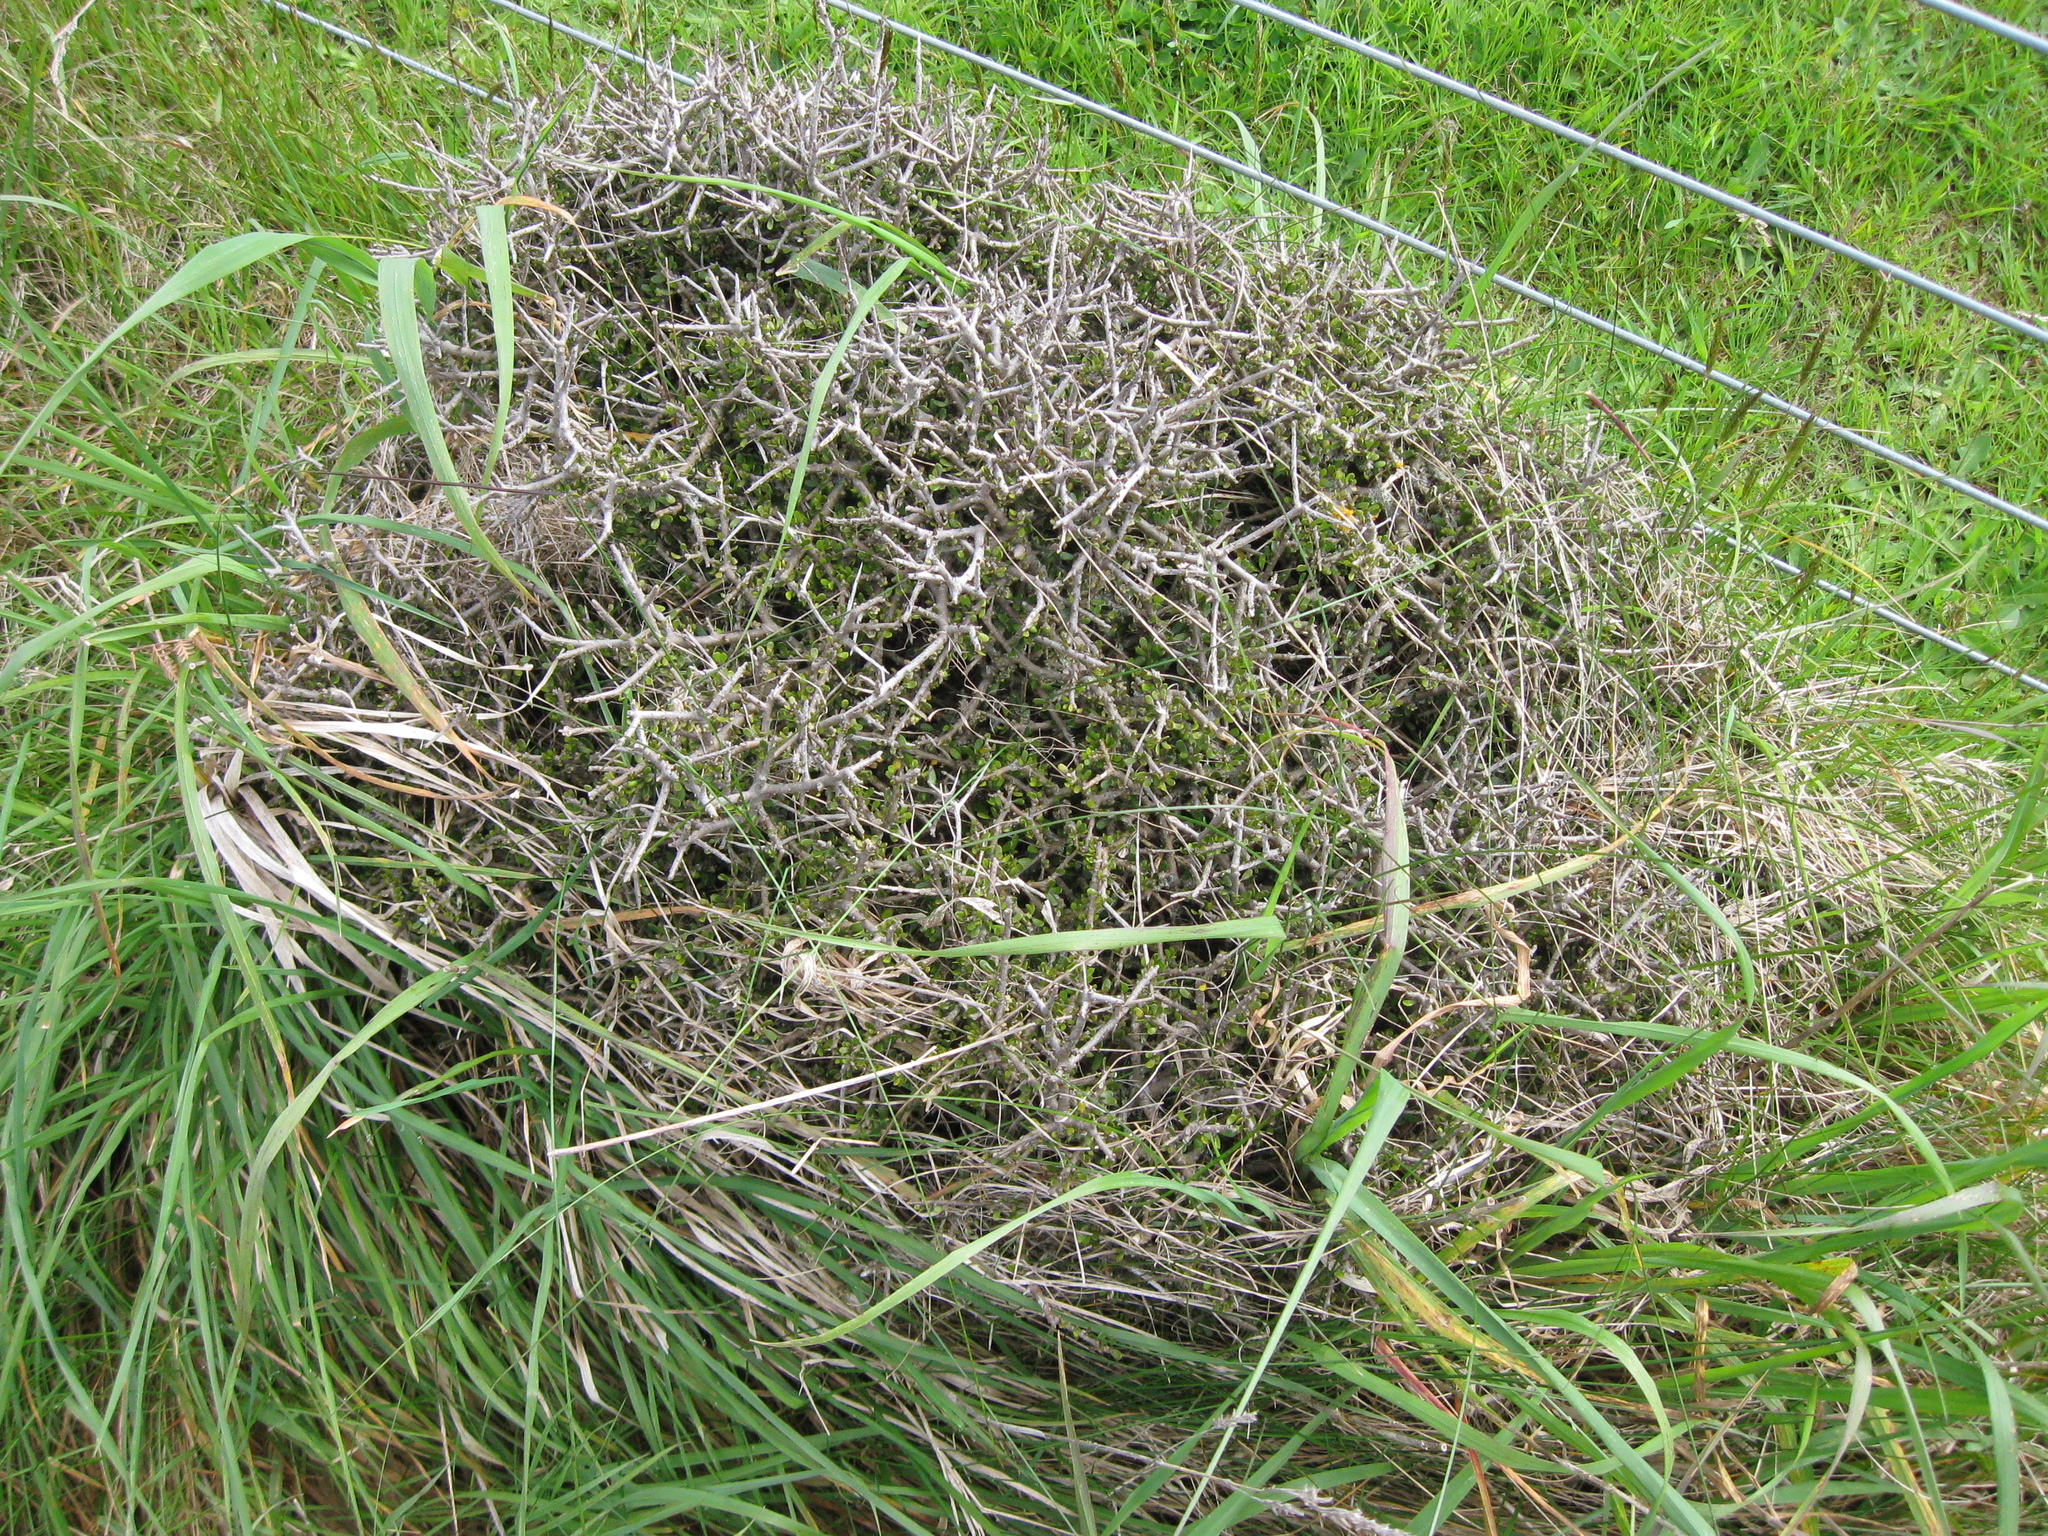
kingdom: Plantae
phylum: Tracheophyta
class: Magnoliopsida
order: Malpighiales
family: Violaceae
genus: Melicytus
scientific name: Melicytus alpinus
